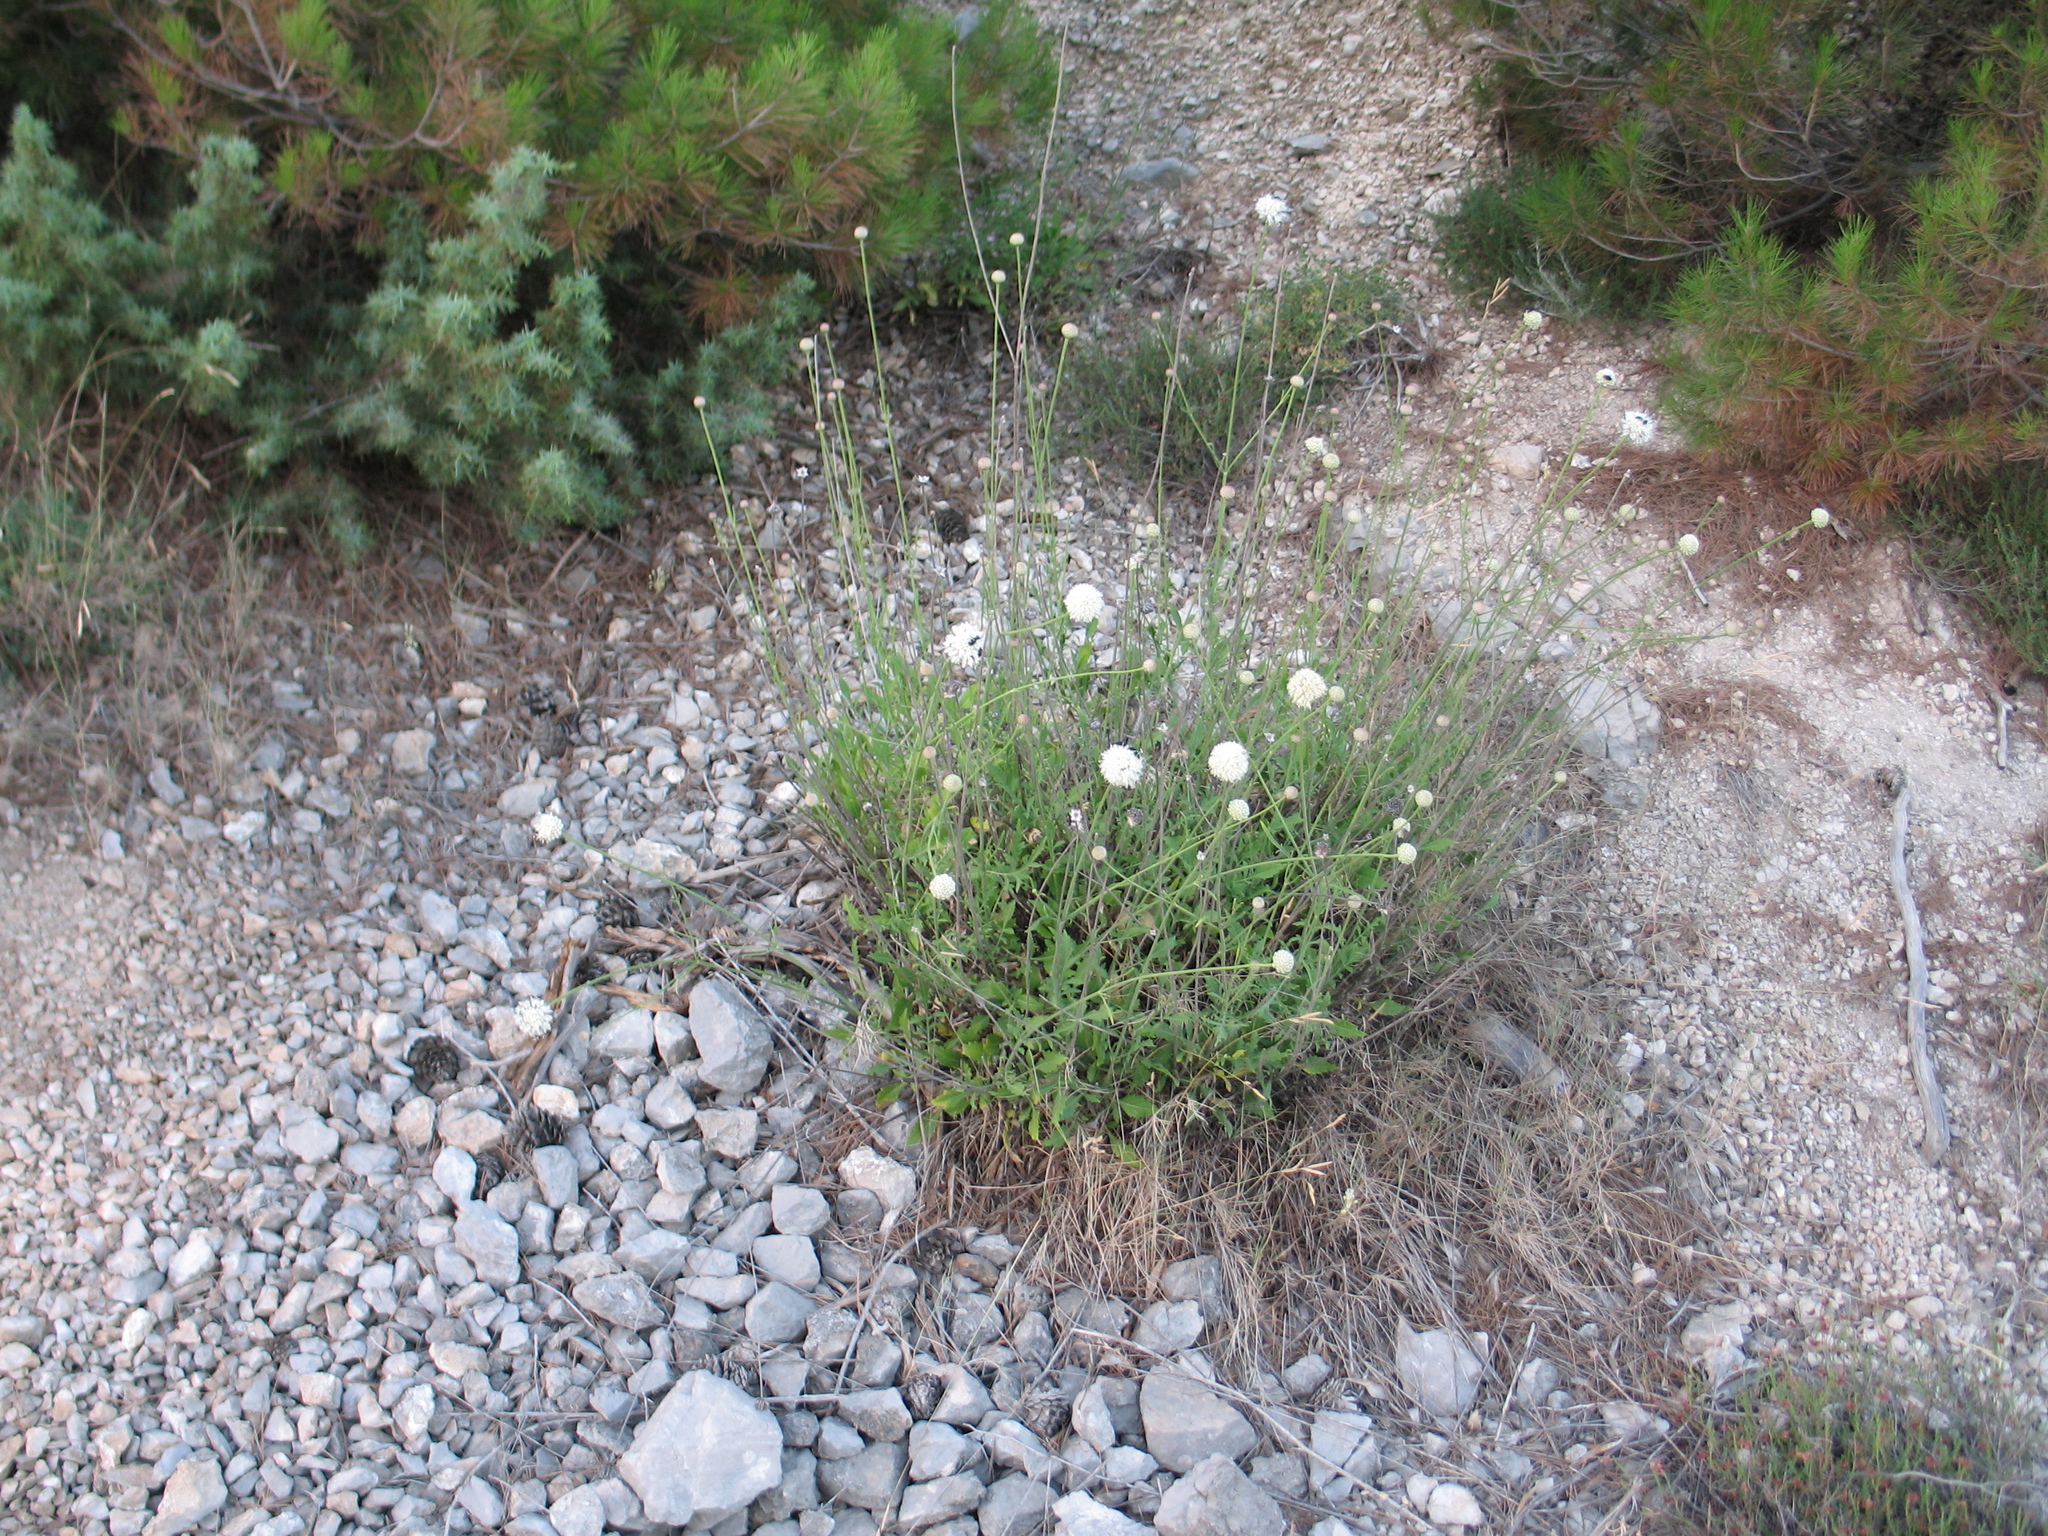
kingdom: Plantae
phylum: Tracheophyta
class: Magnoliopsida
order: Dipsacales
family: Caprifoliaceae
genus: Cephalaria
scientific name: Cephalaria leucantha
